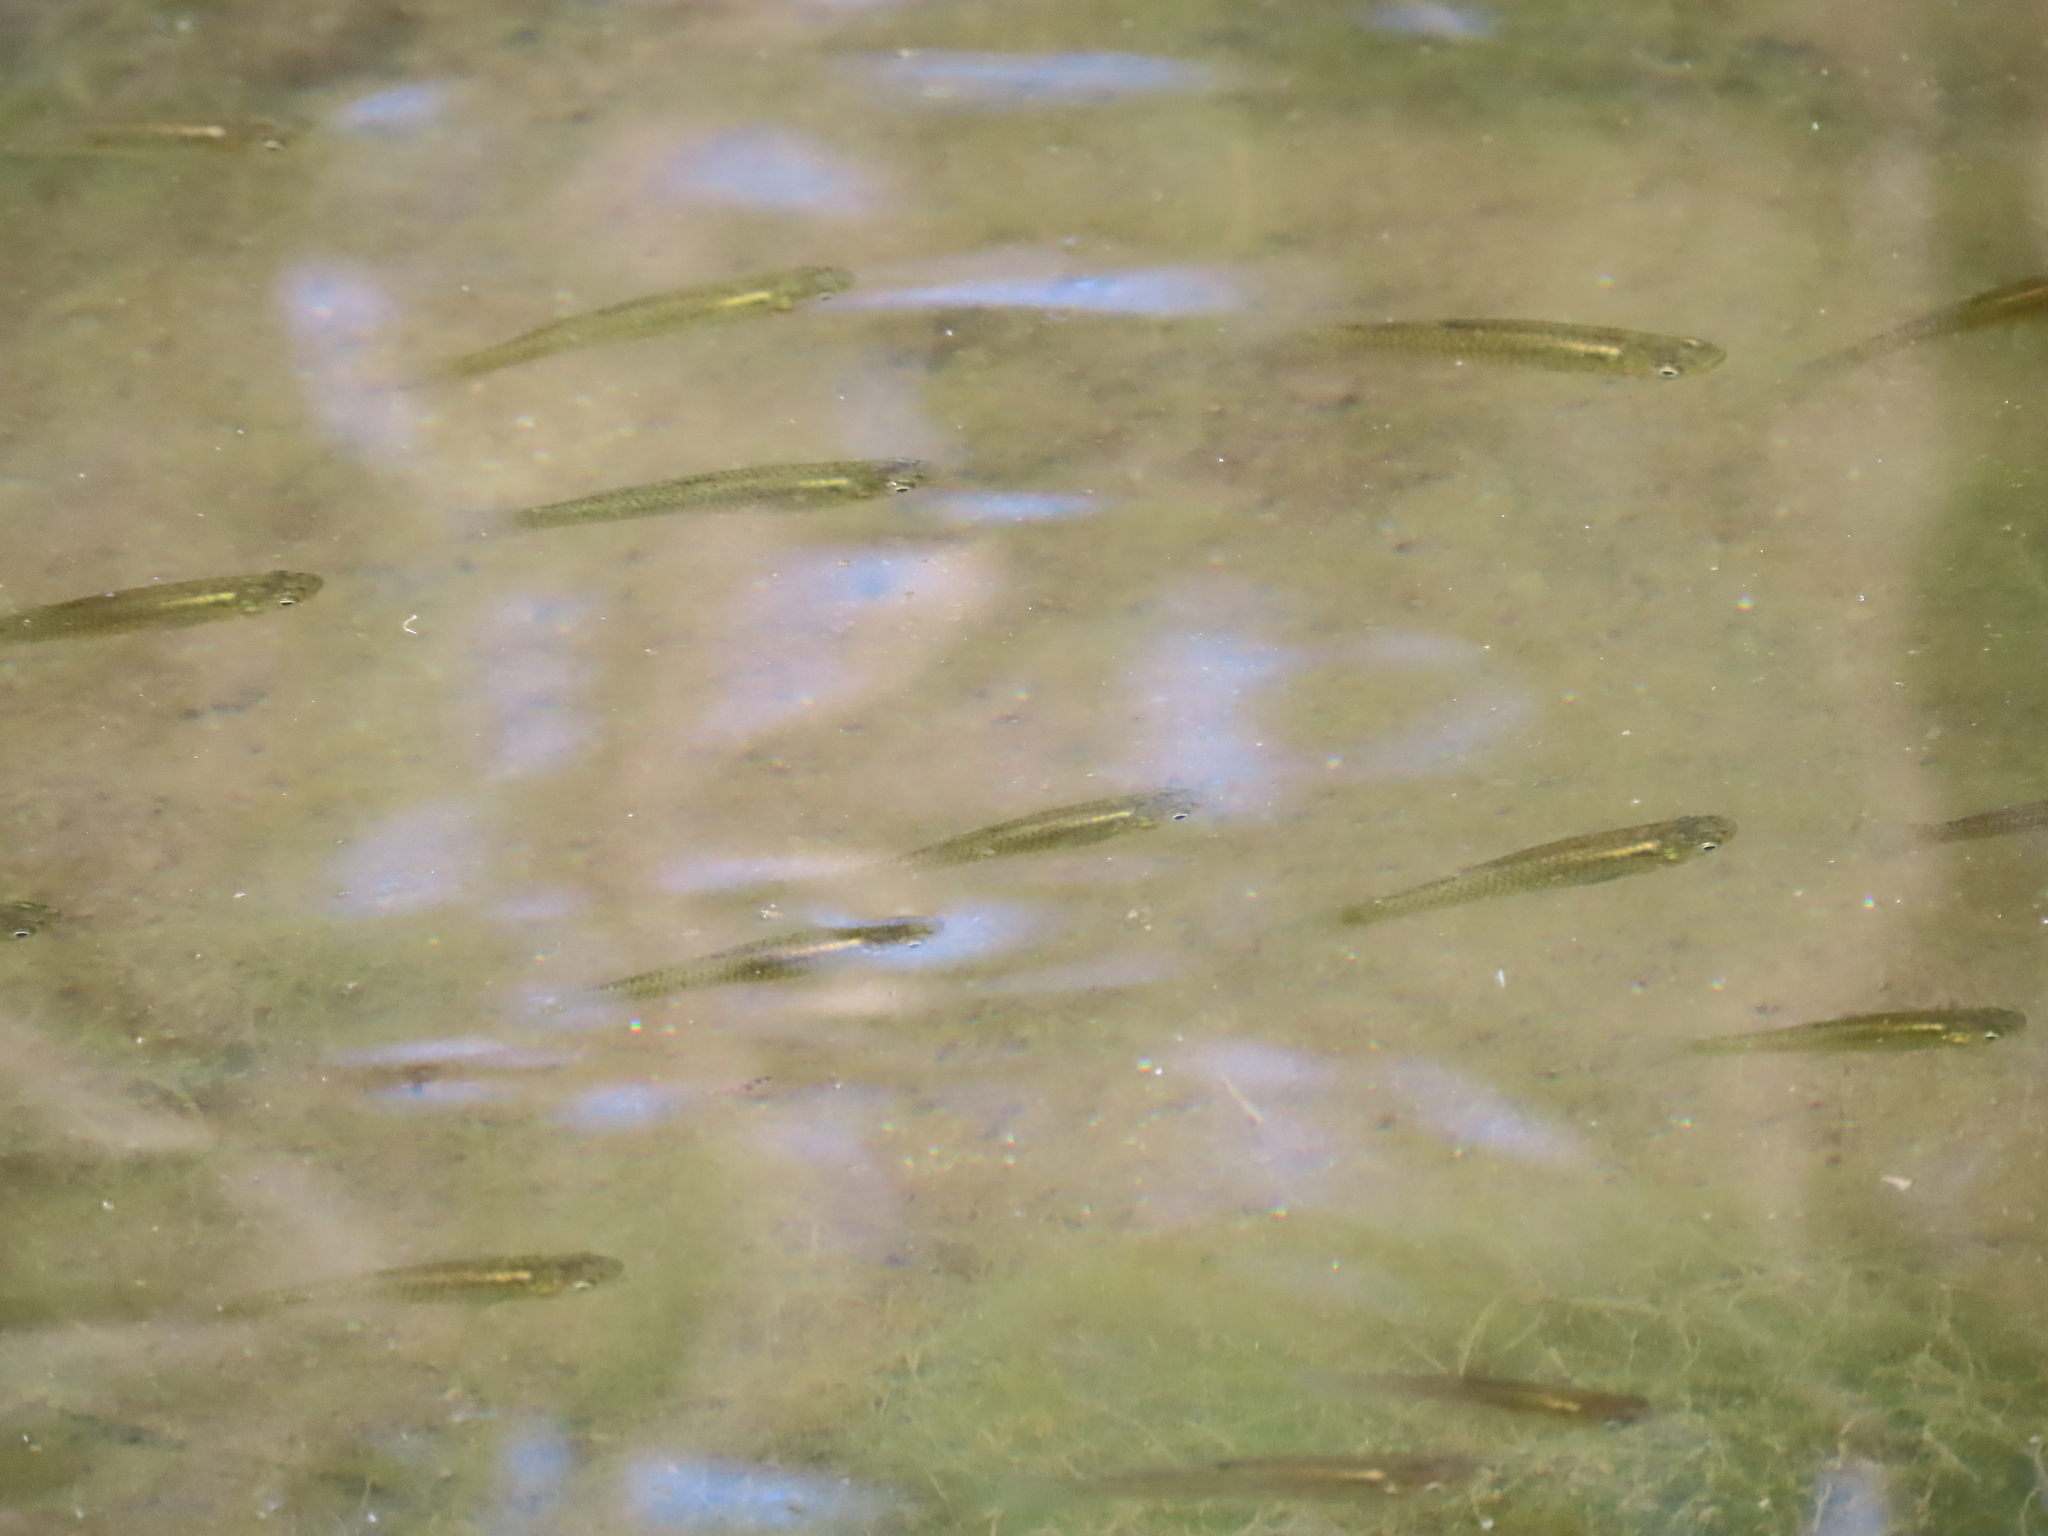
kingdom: Animalia
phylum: Chordata
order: Cyprinodontiformes
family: Poeciliidae
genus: Gambusia
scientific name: Gambusia holbrooki
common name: Eastern mosquitofish
